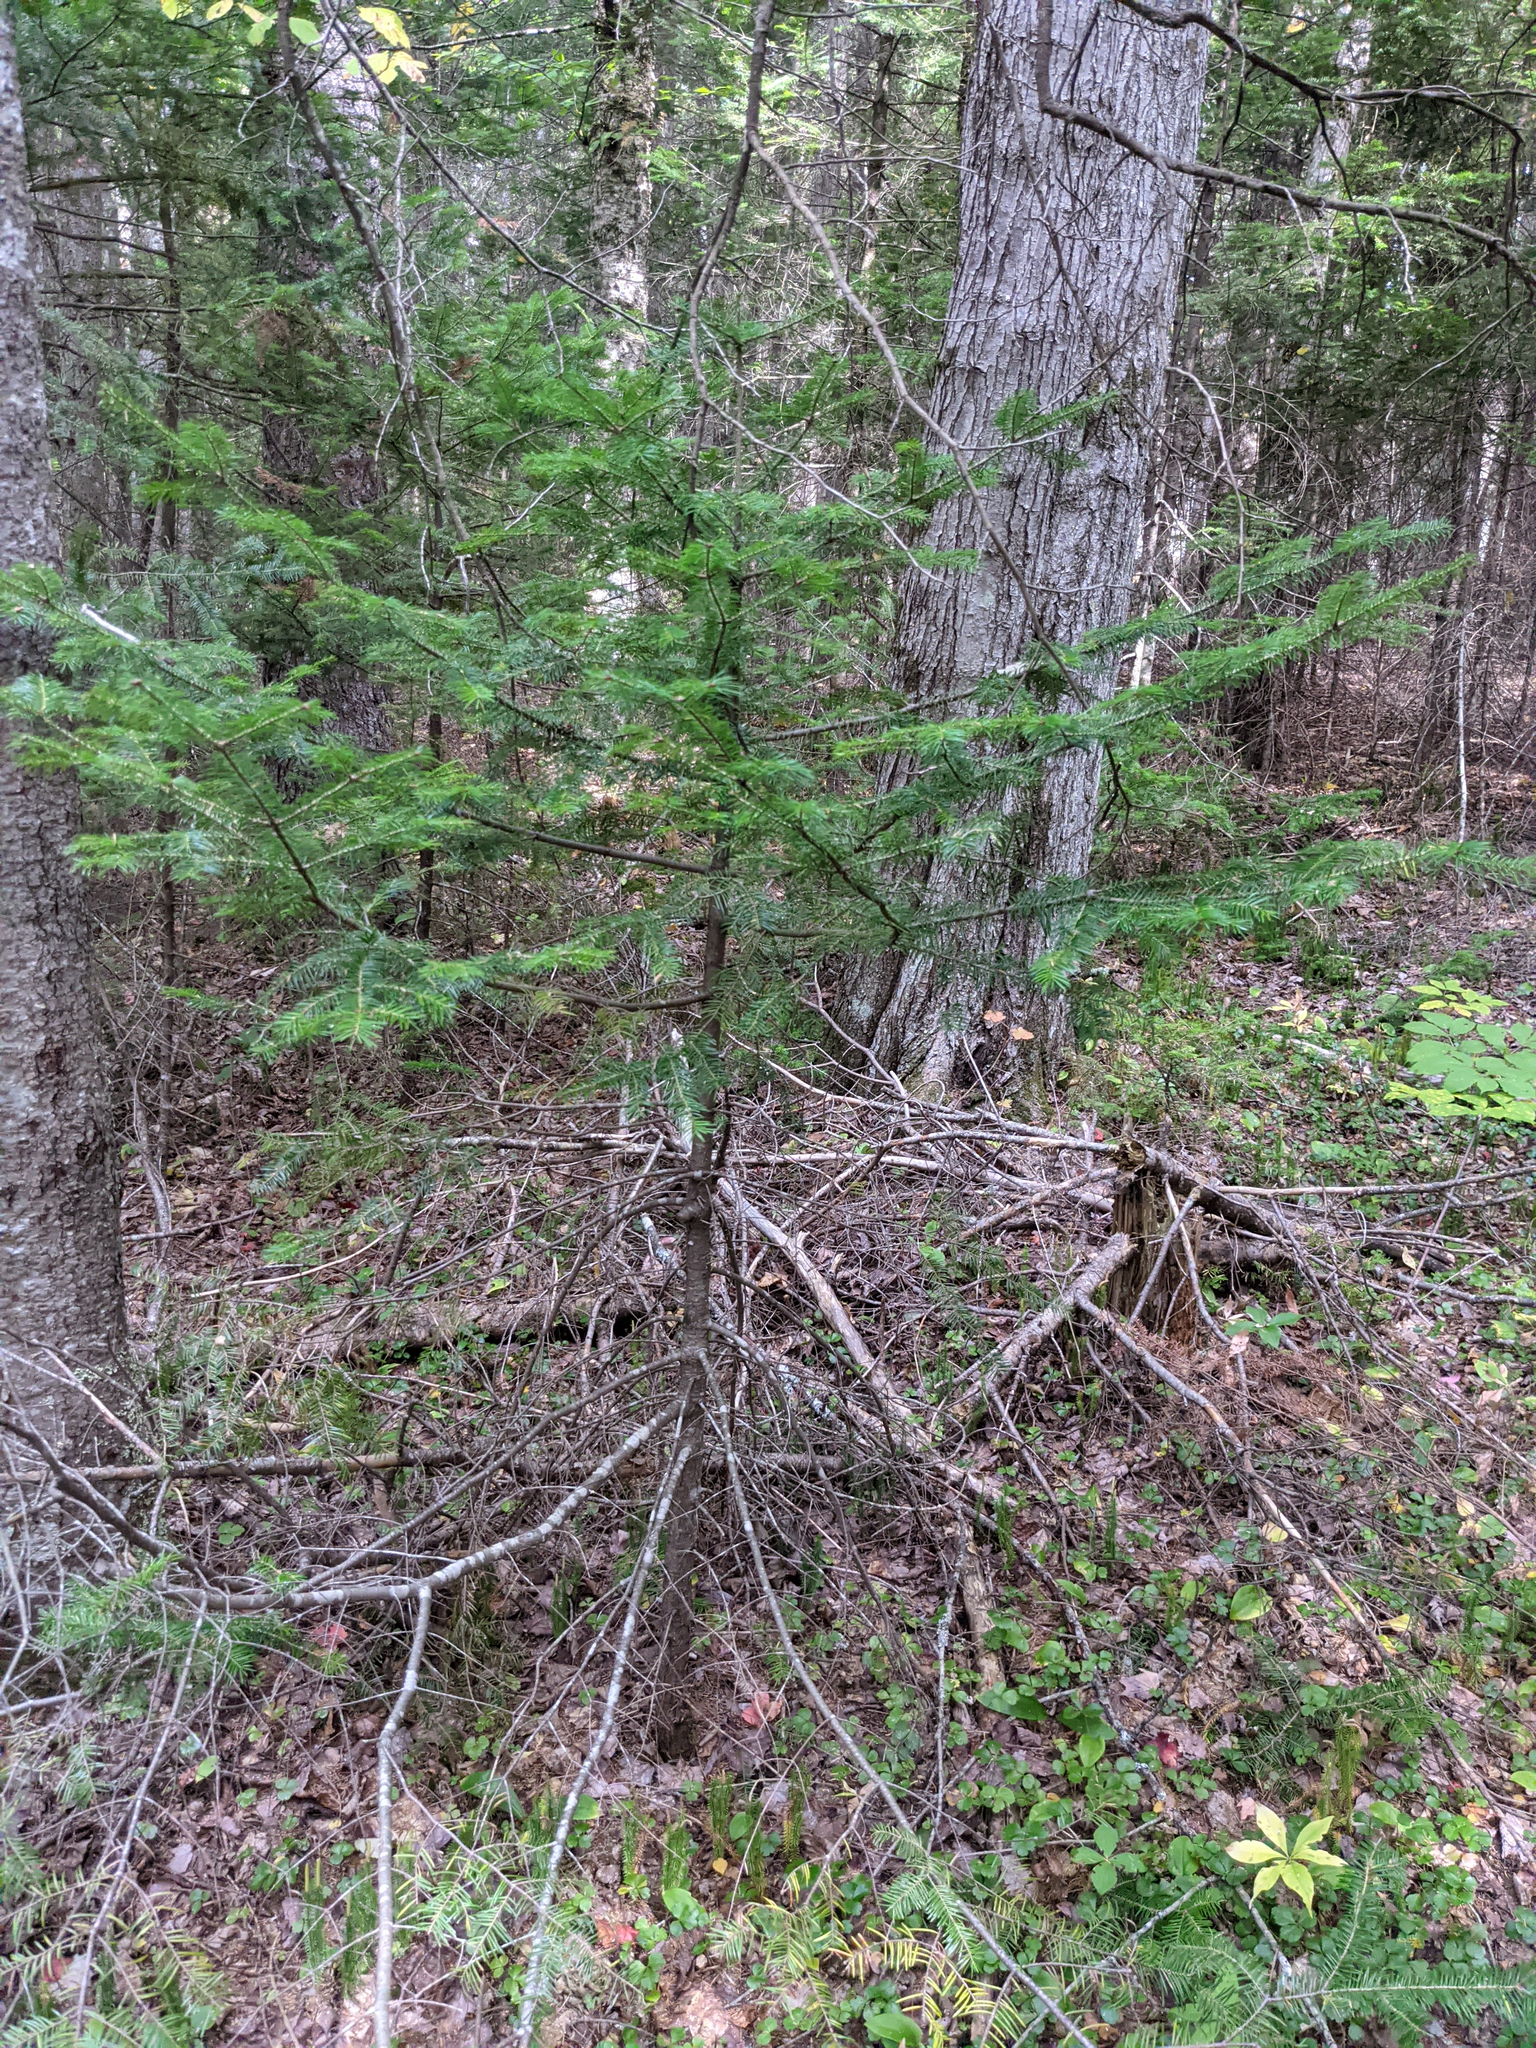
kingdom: Plantae
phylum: Tracheophyta
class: Pinopsida
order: Pinales
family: Pinaceae
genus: Abies
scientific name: Abies balsamea
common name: Balsam fir
